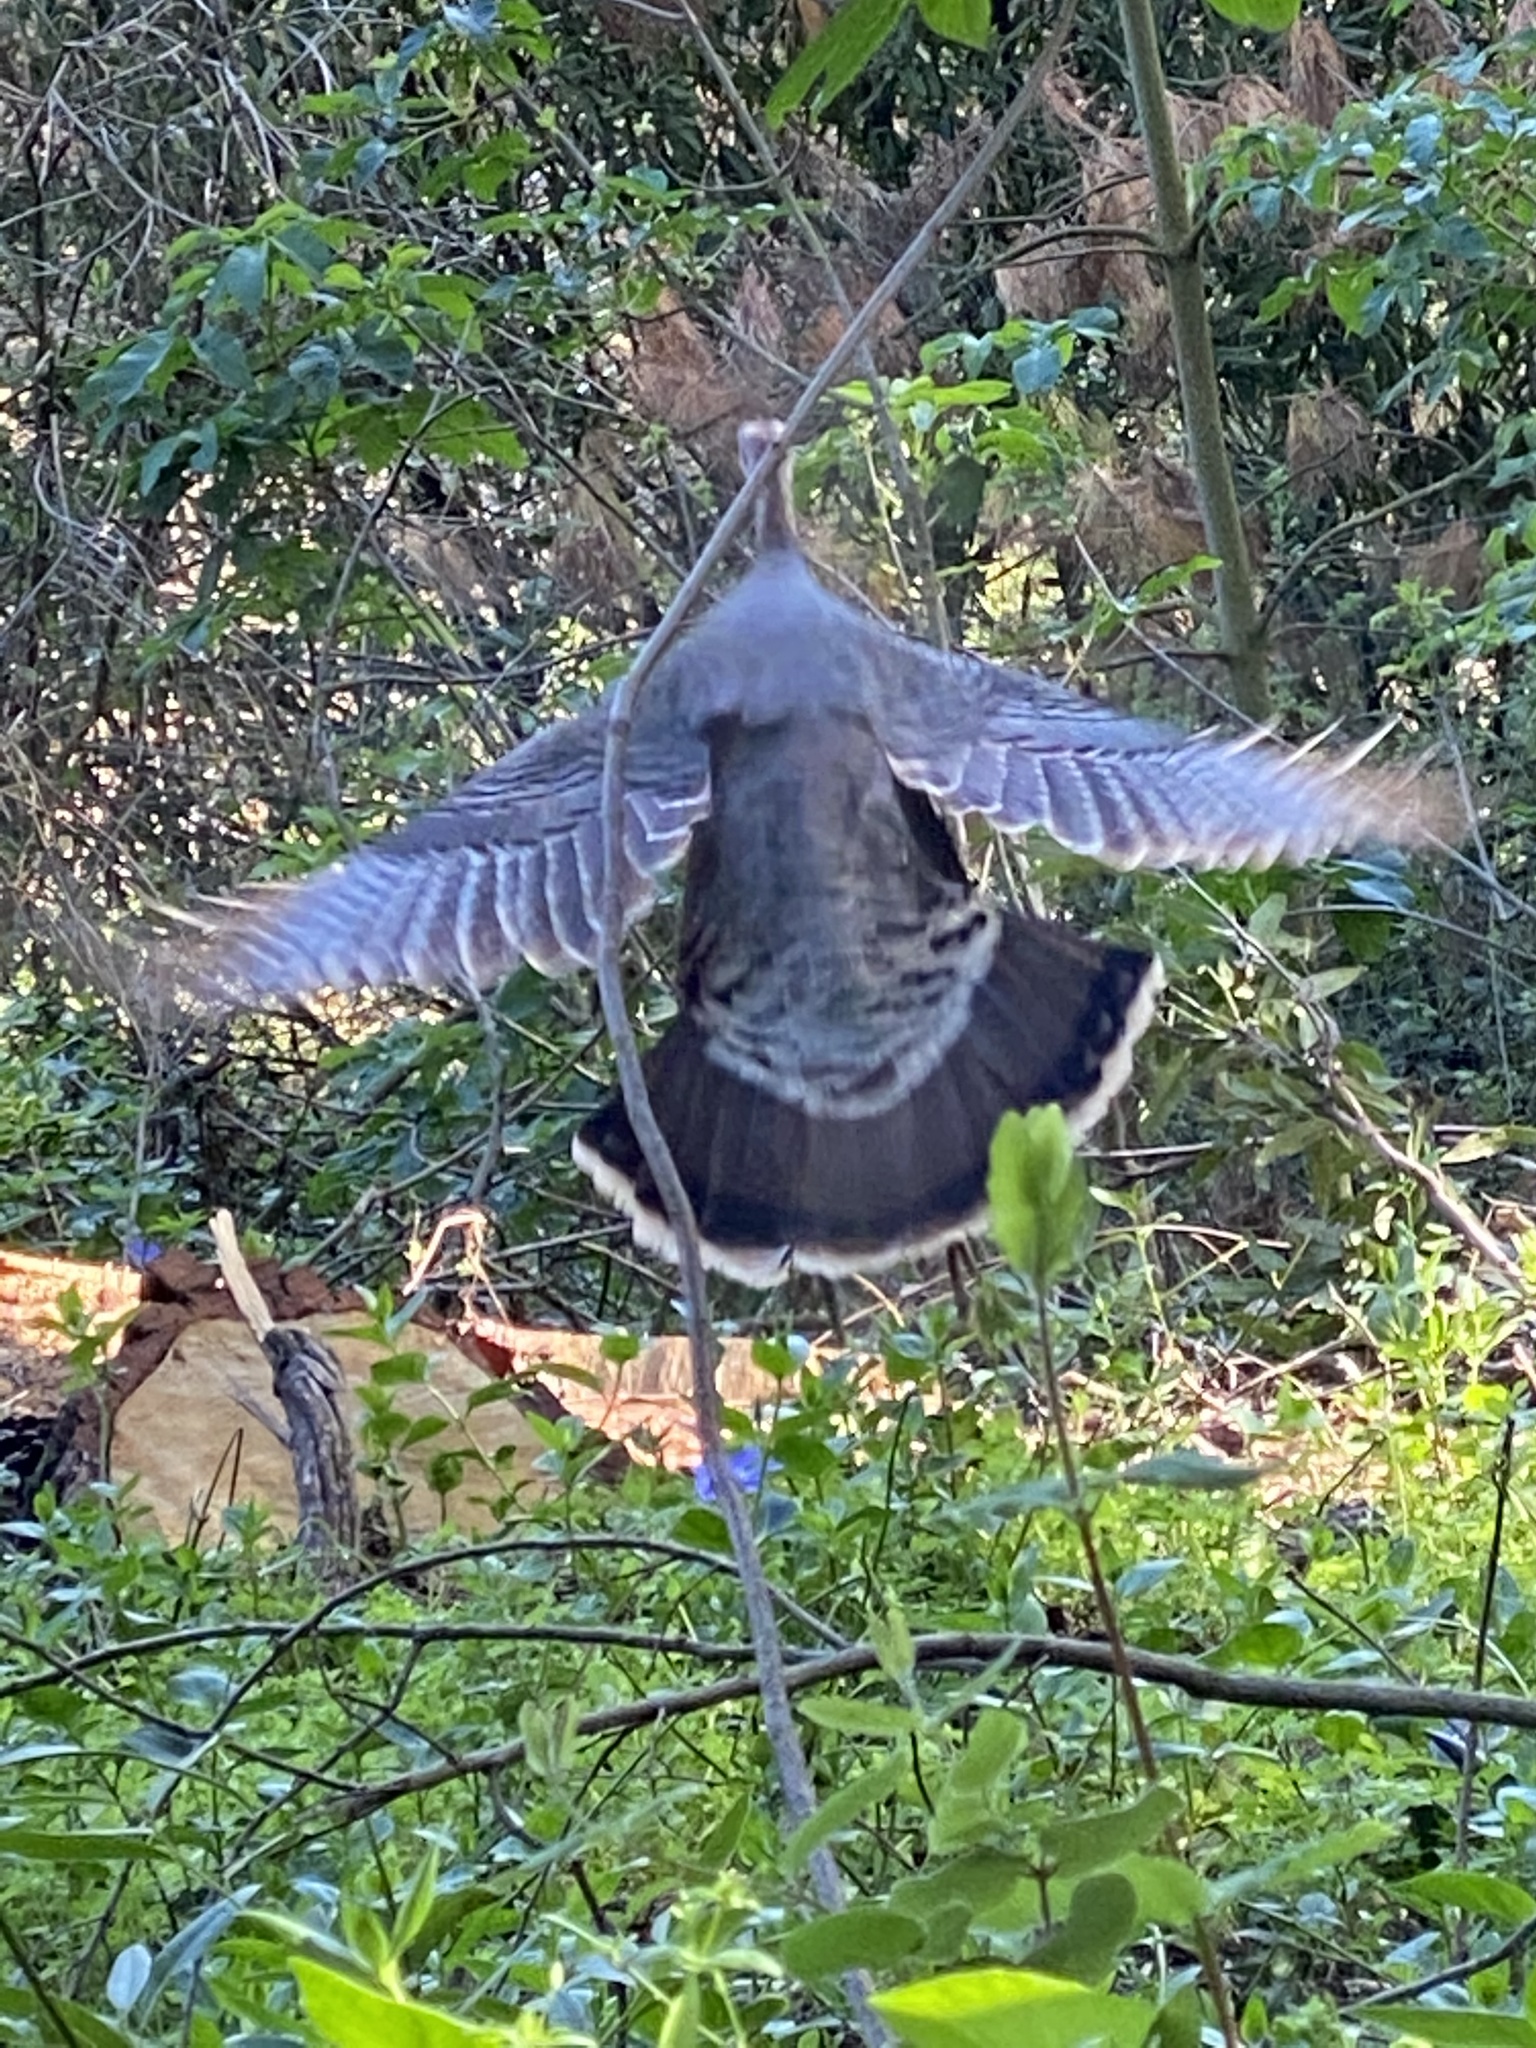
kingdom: Animalia
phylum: Chordata
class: Aves
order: Galliformes
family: Phasianidae
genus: Meleagris
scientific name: Meleagris gallopavo
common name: Wild turkey
